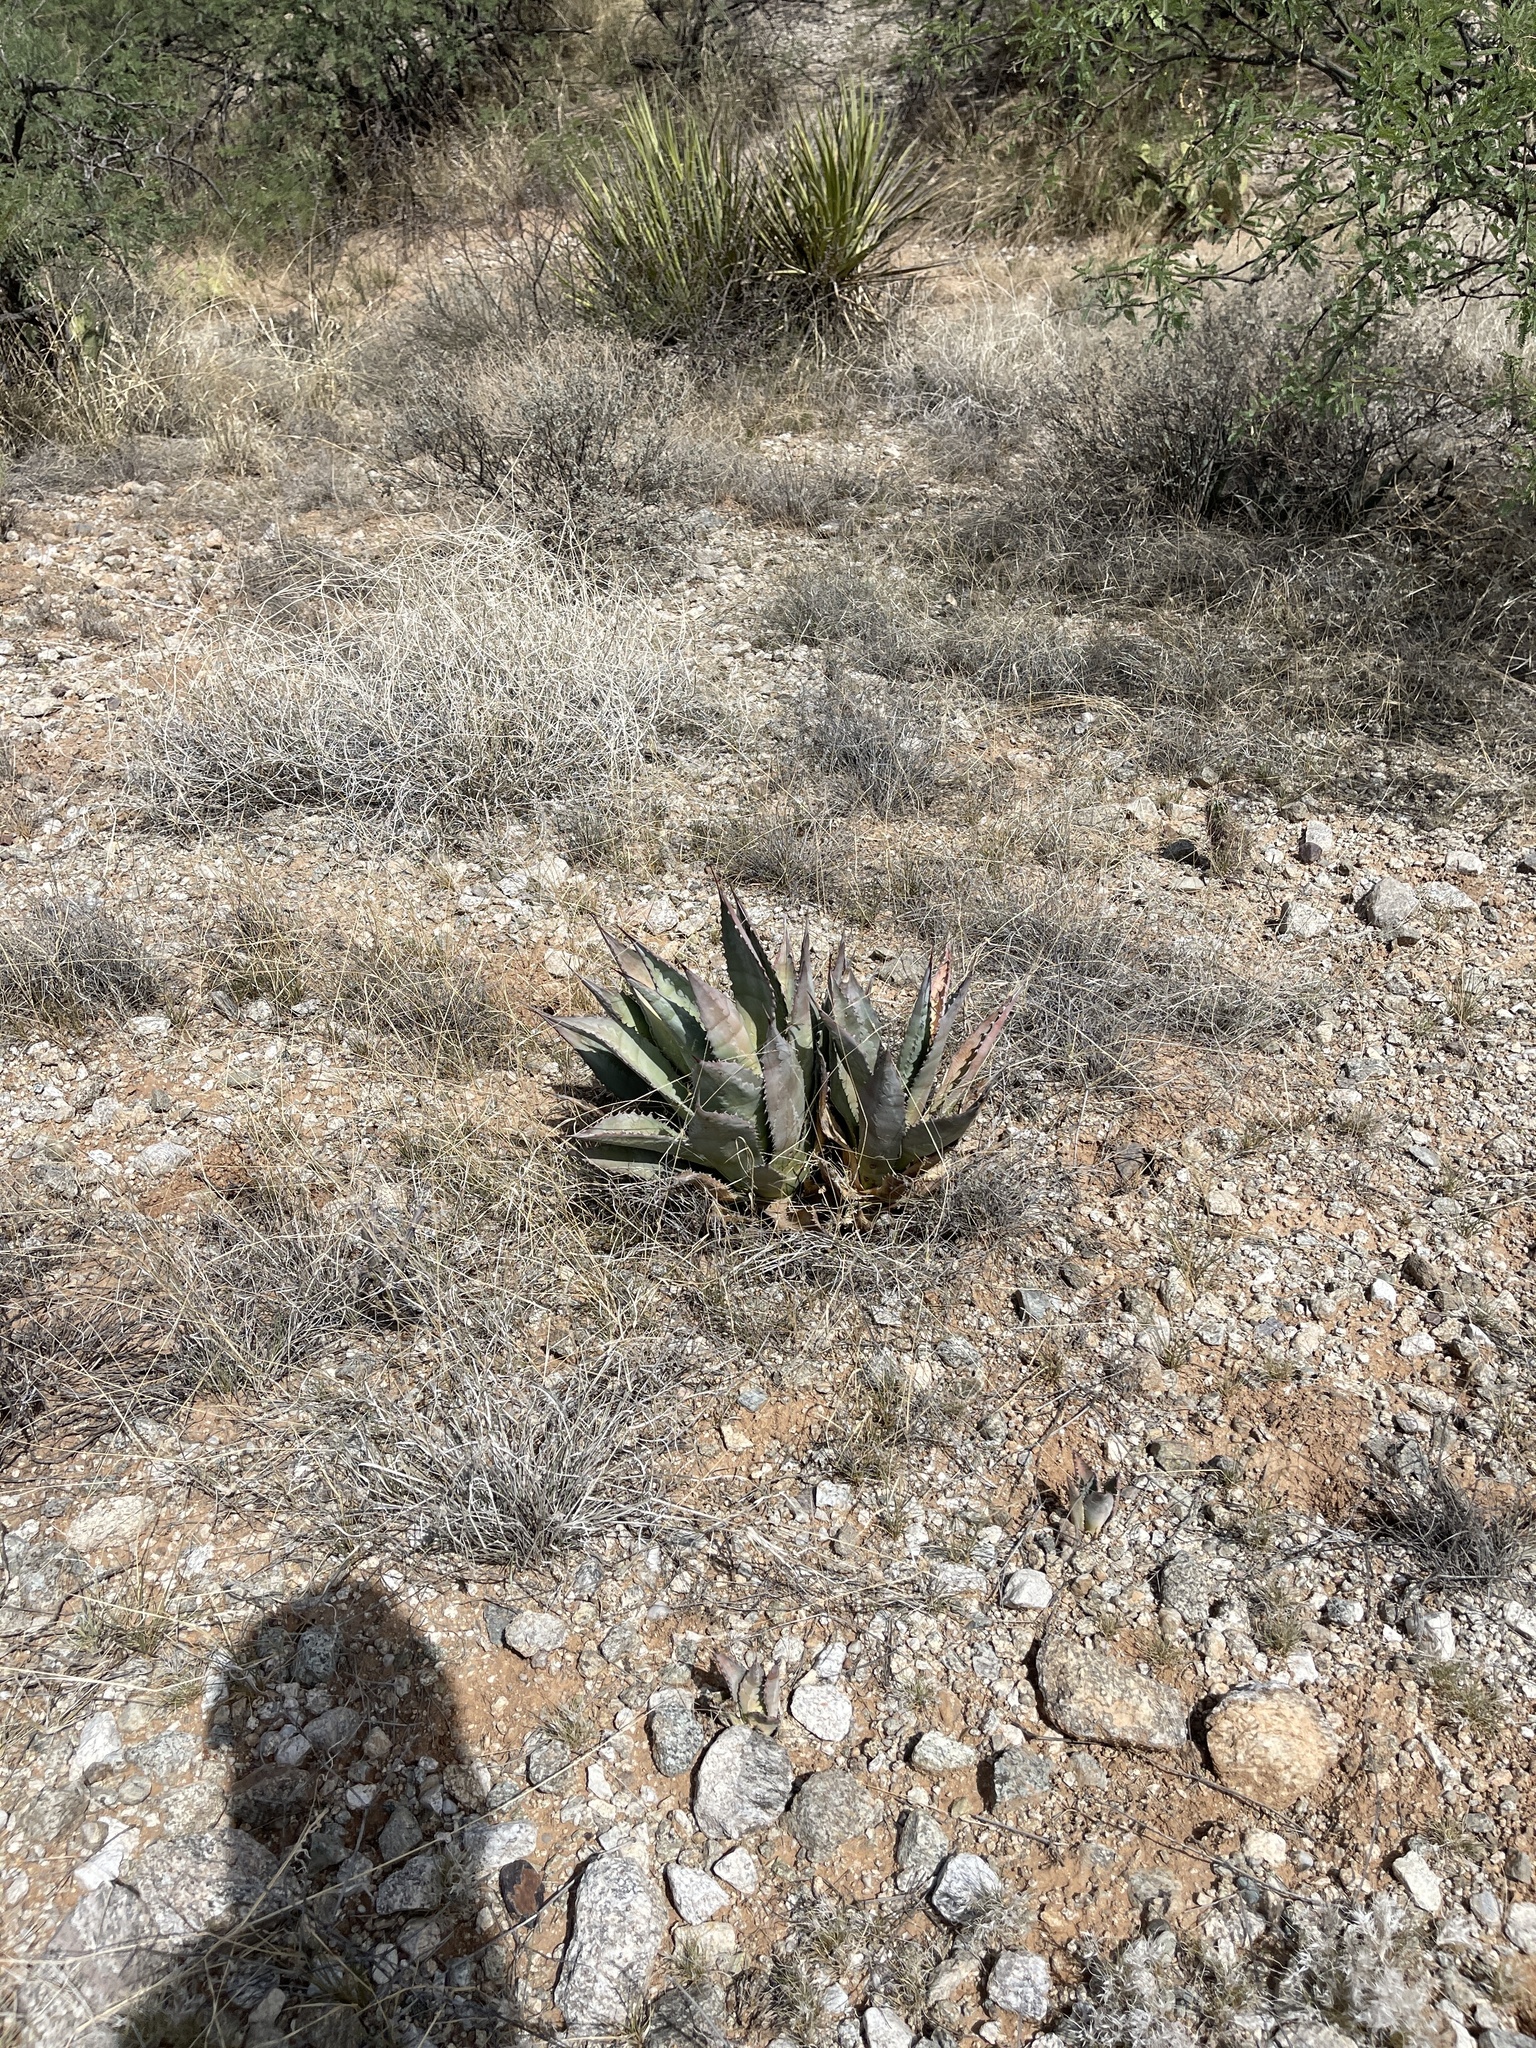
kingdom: Plantae
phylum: Tracheophyta
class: Liliopsida
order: Asparagales
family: Asparagaceae
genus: Agave
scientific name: Agave palmeri
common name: Palmer agave
